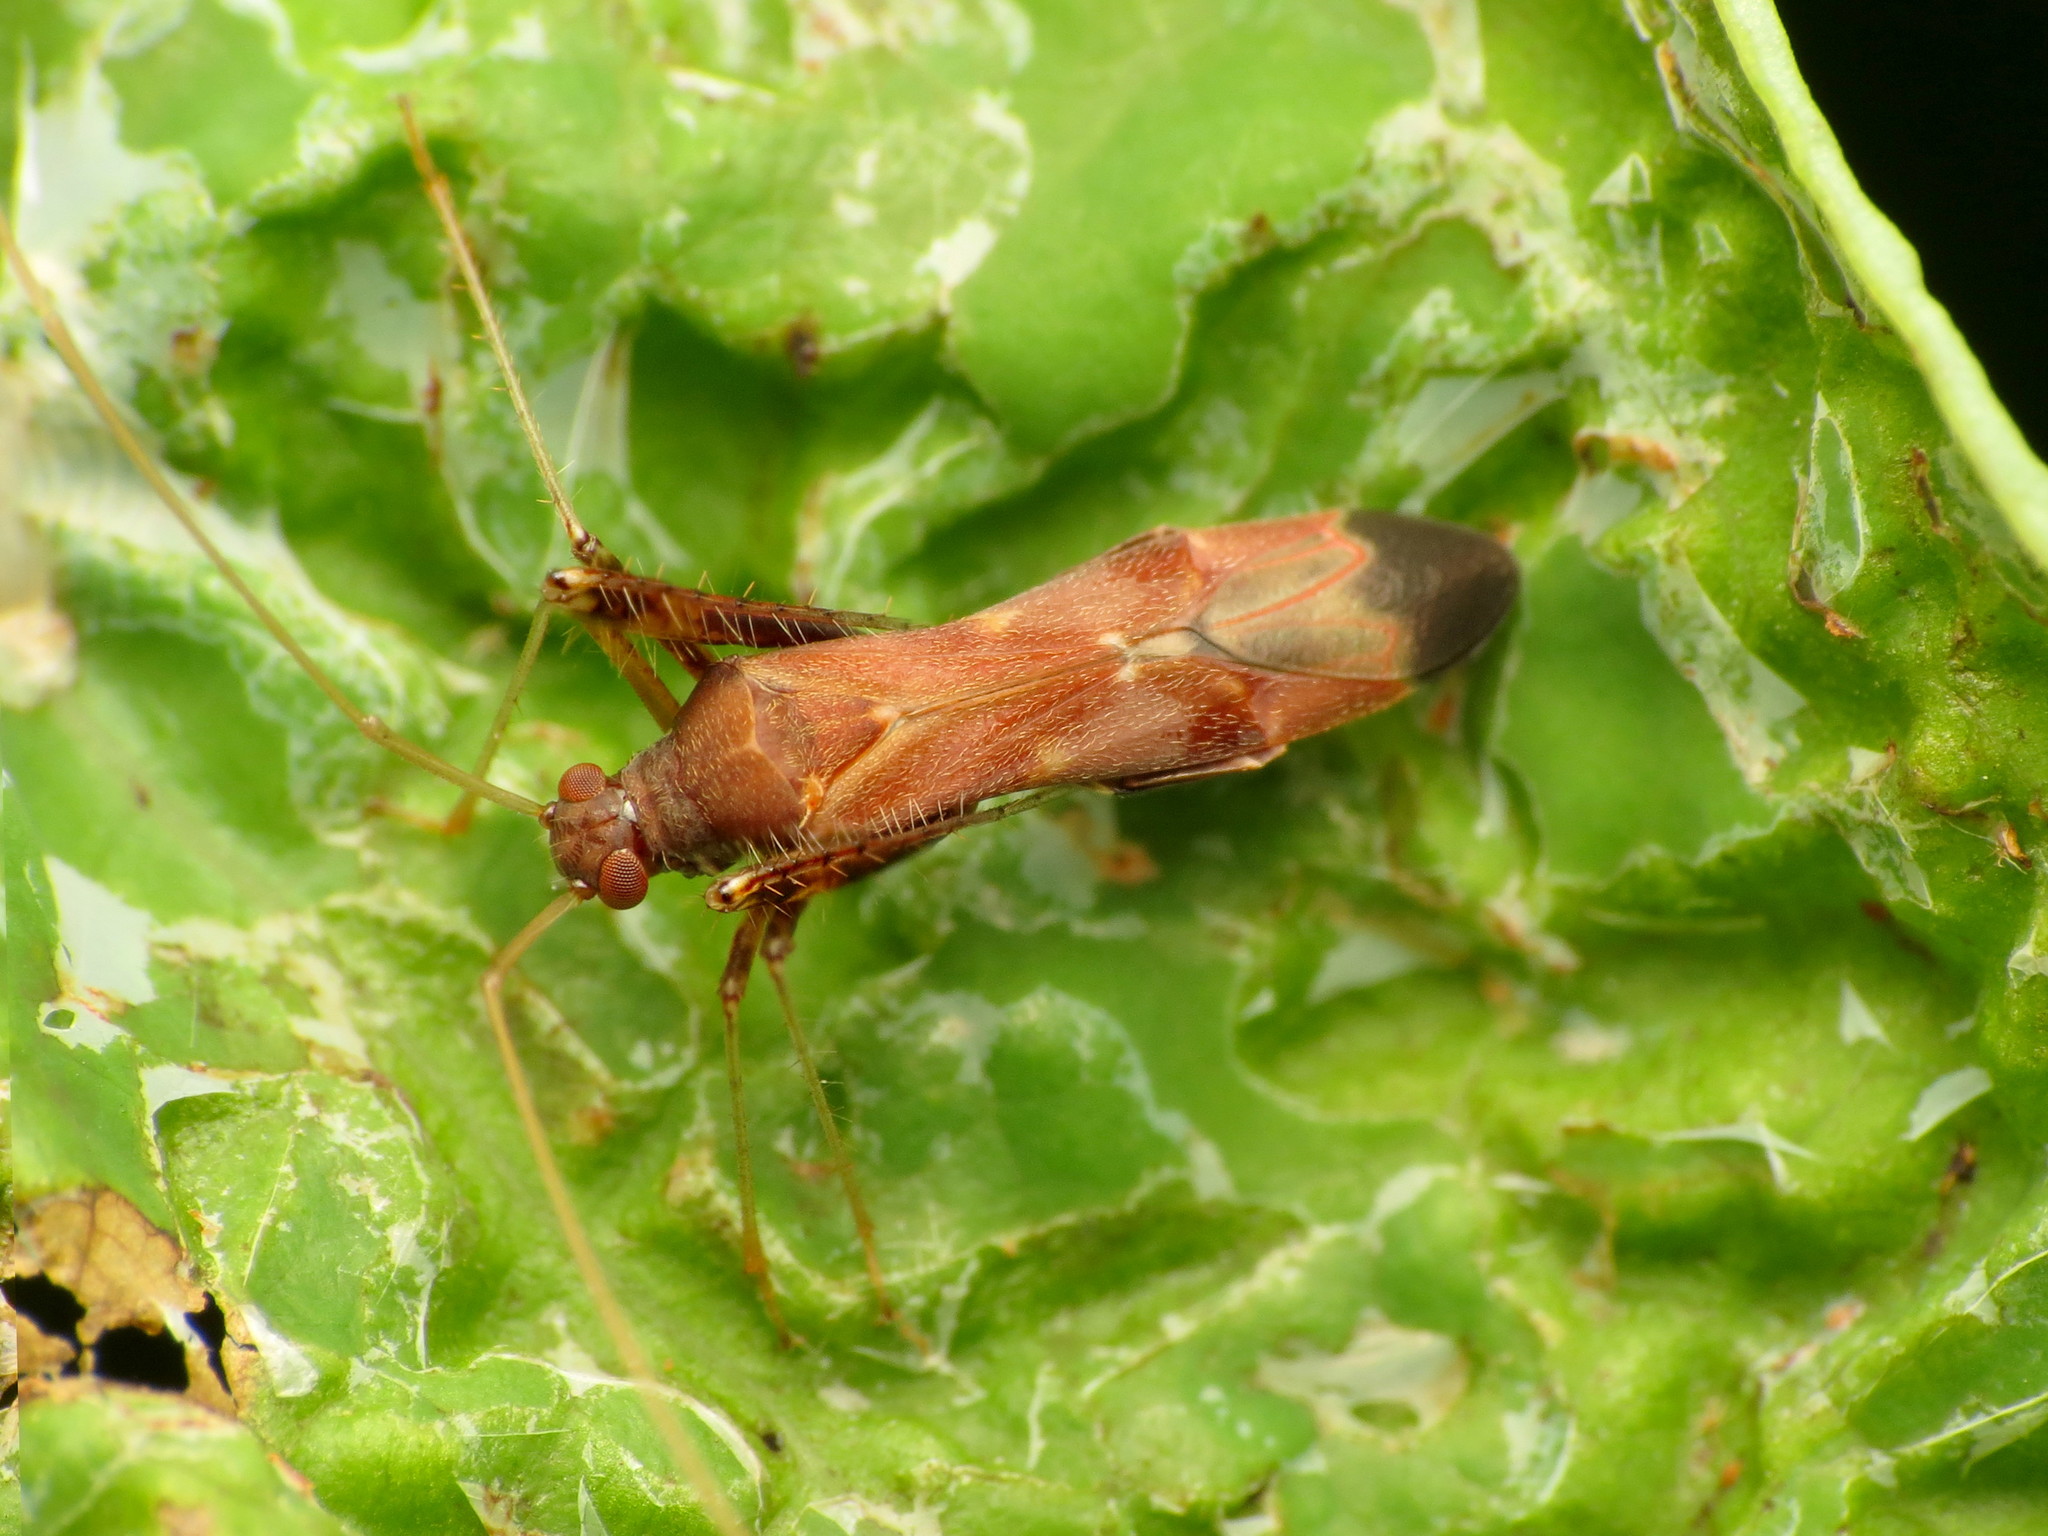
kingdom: Animalia
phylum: Arthropoda
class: Insecta
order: Hemiptera
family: Miridae
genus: Paraxenetus
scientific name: Paraxenetus guttulatus
